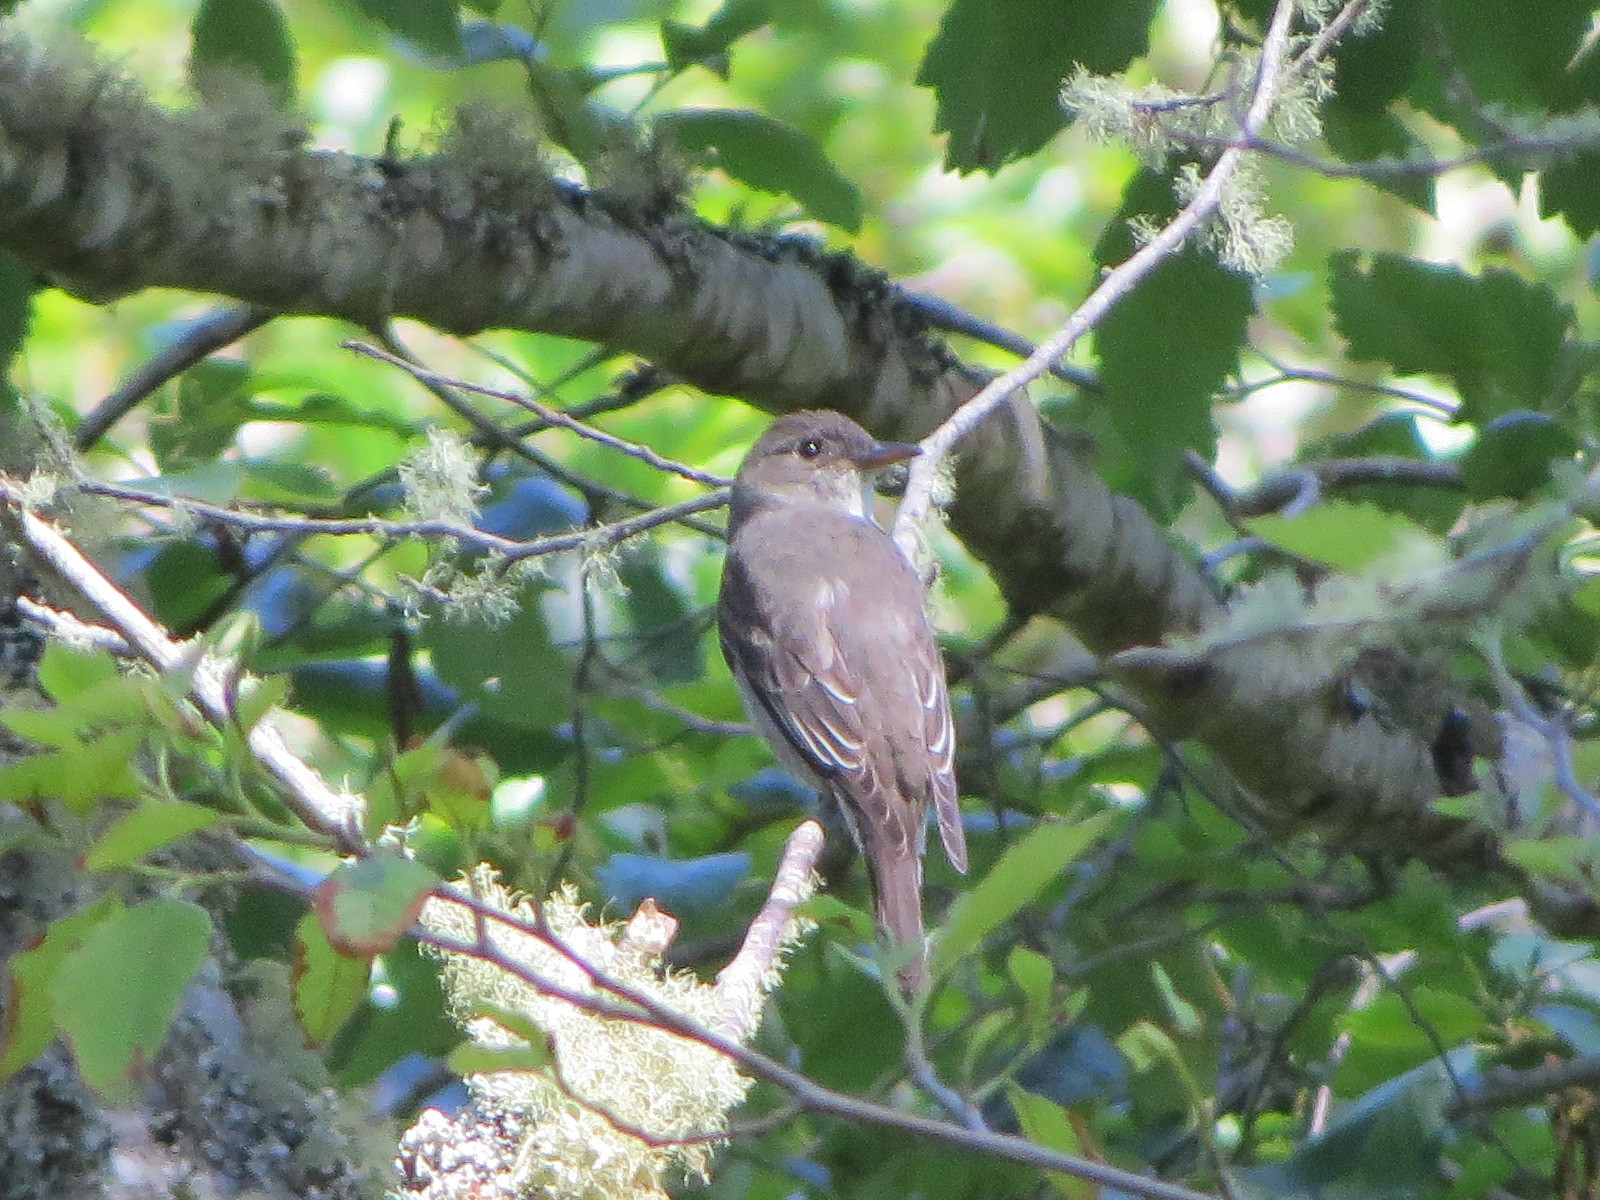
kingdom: Animalia
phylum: Chordata
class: Aves
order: Passeriformes
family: Tyrannidae
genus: Contopus
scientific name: Contopus cooperi
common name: Olive-sided flycatcher
